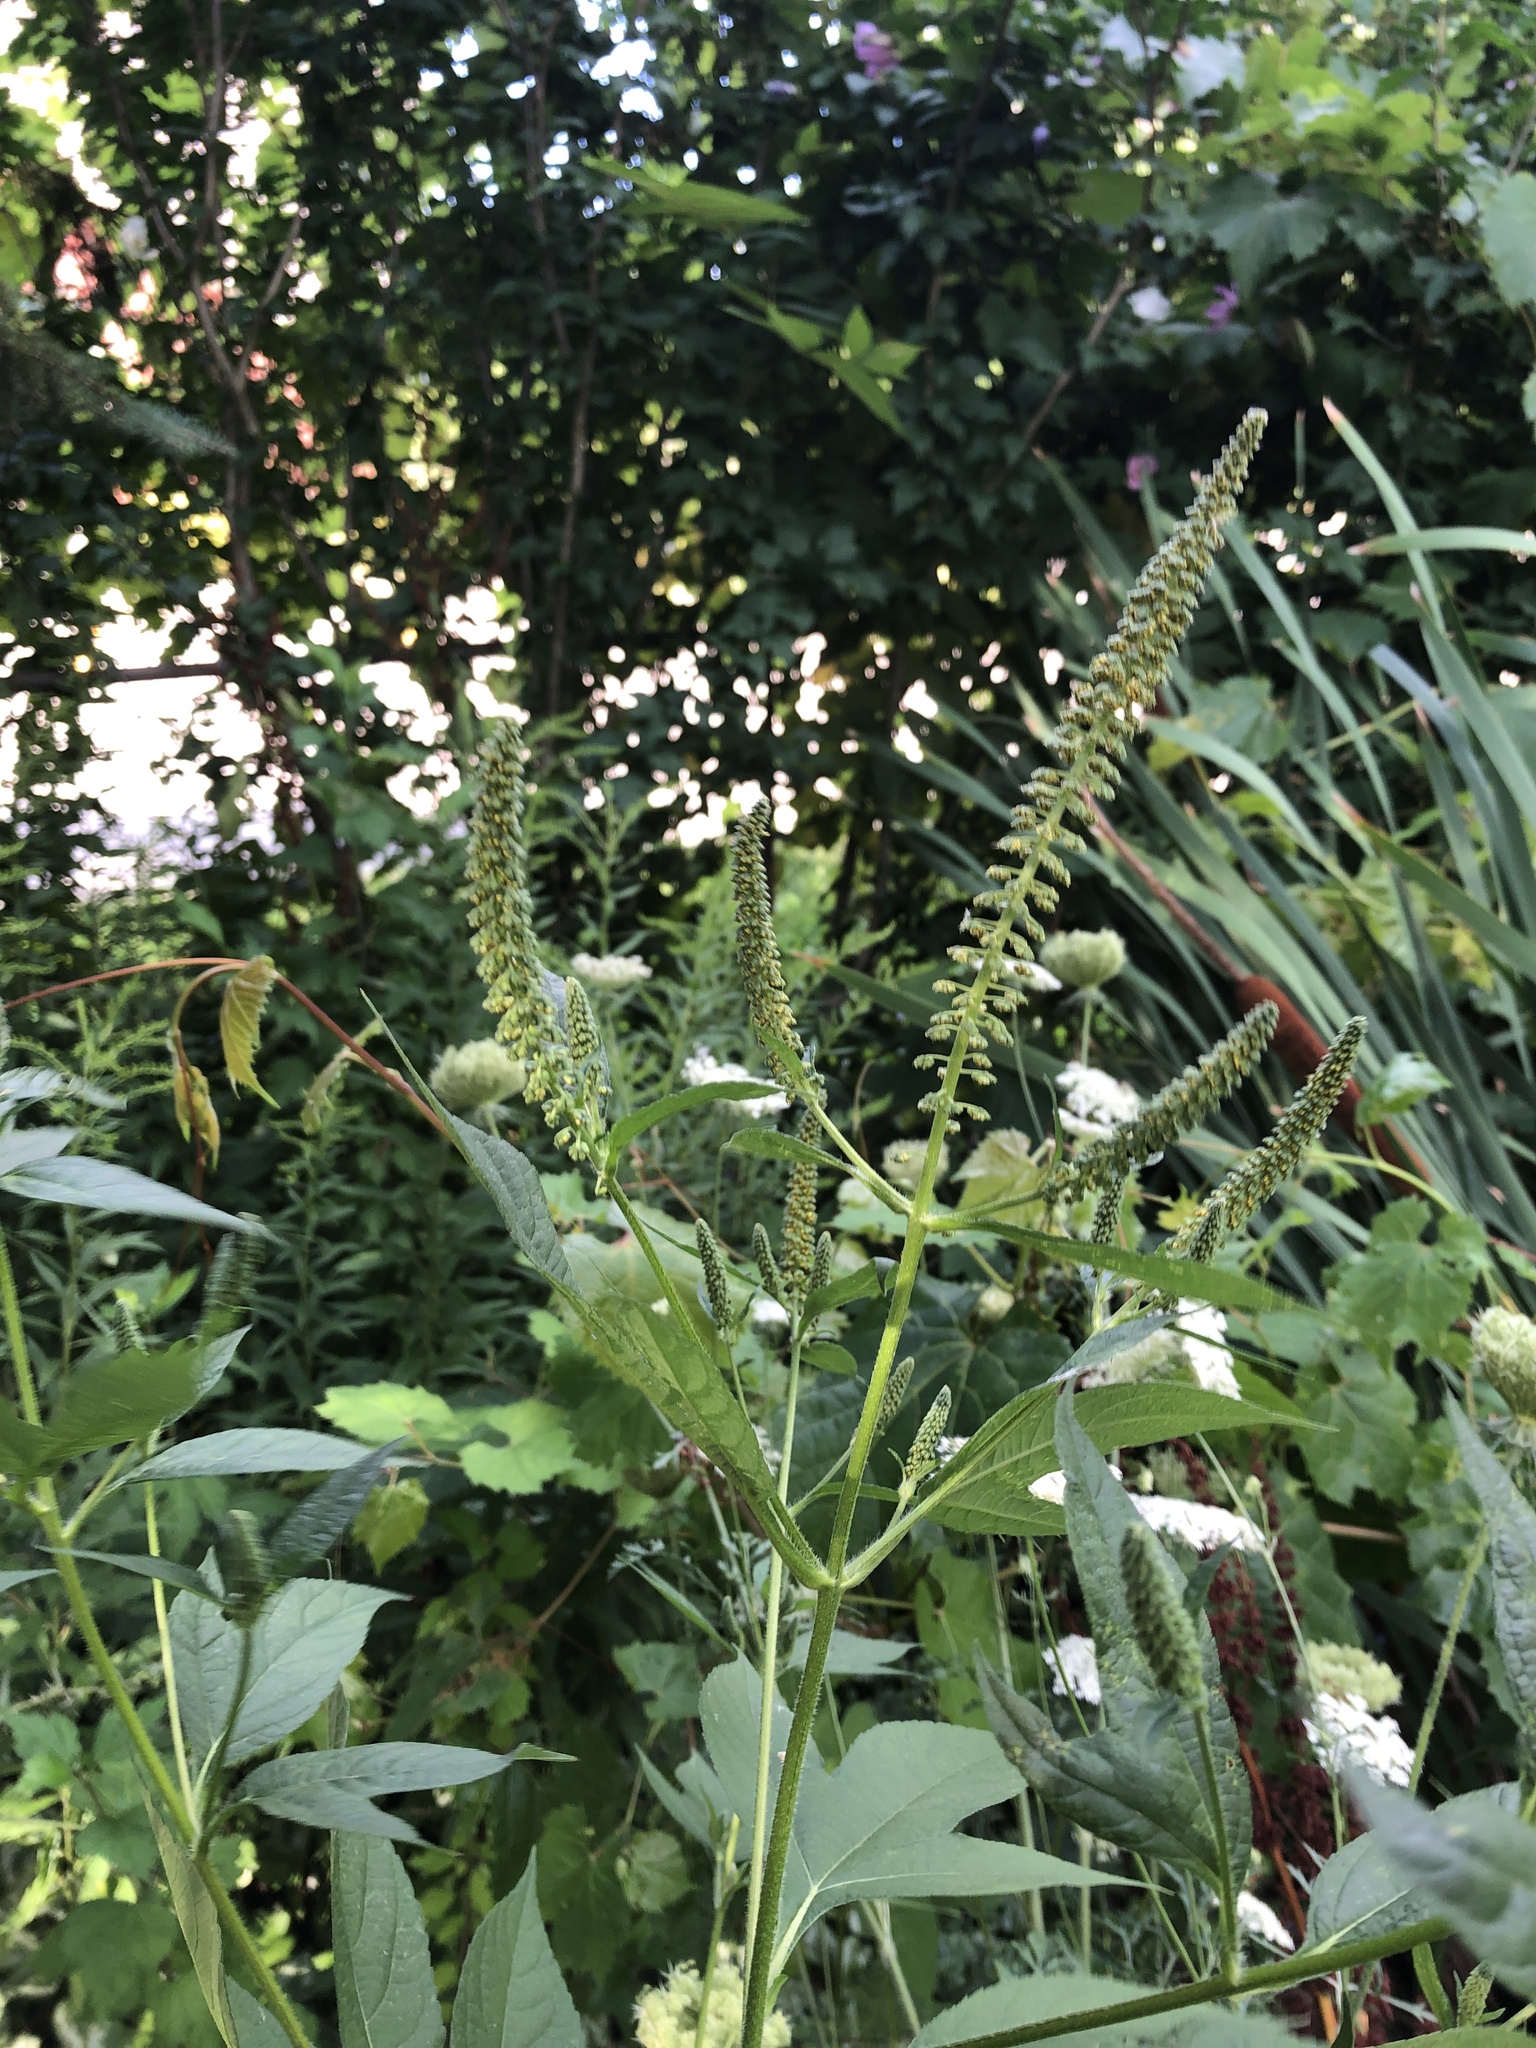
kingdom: Plantae
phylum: Tracheophyta
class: Magnoliopsida
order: Asterales
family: Asteraceae
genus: Ambrosia
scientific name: Ambrosia trifida
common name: Giant ragweed
